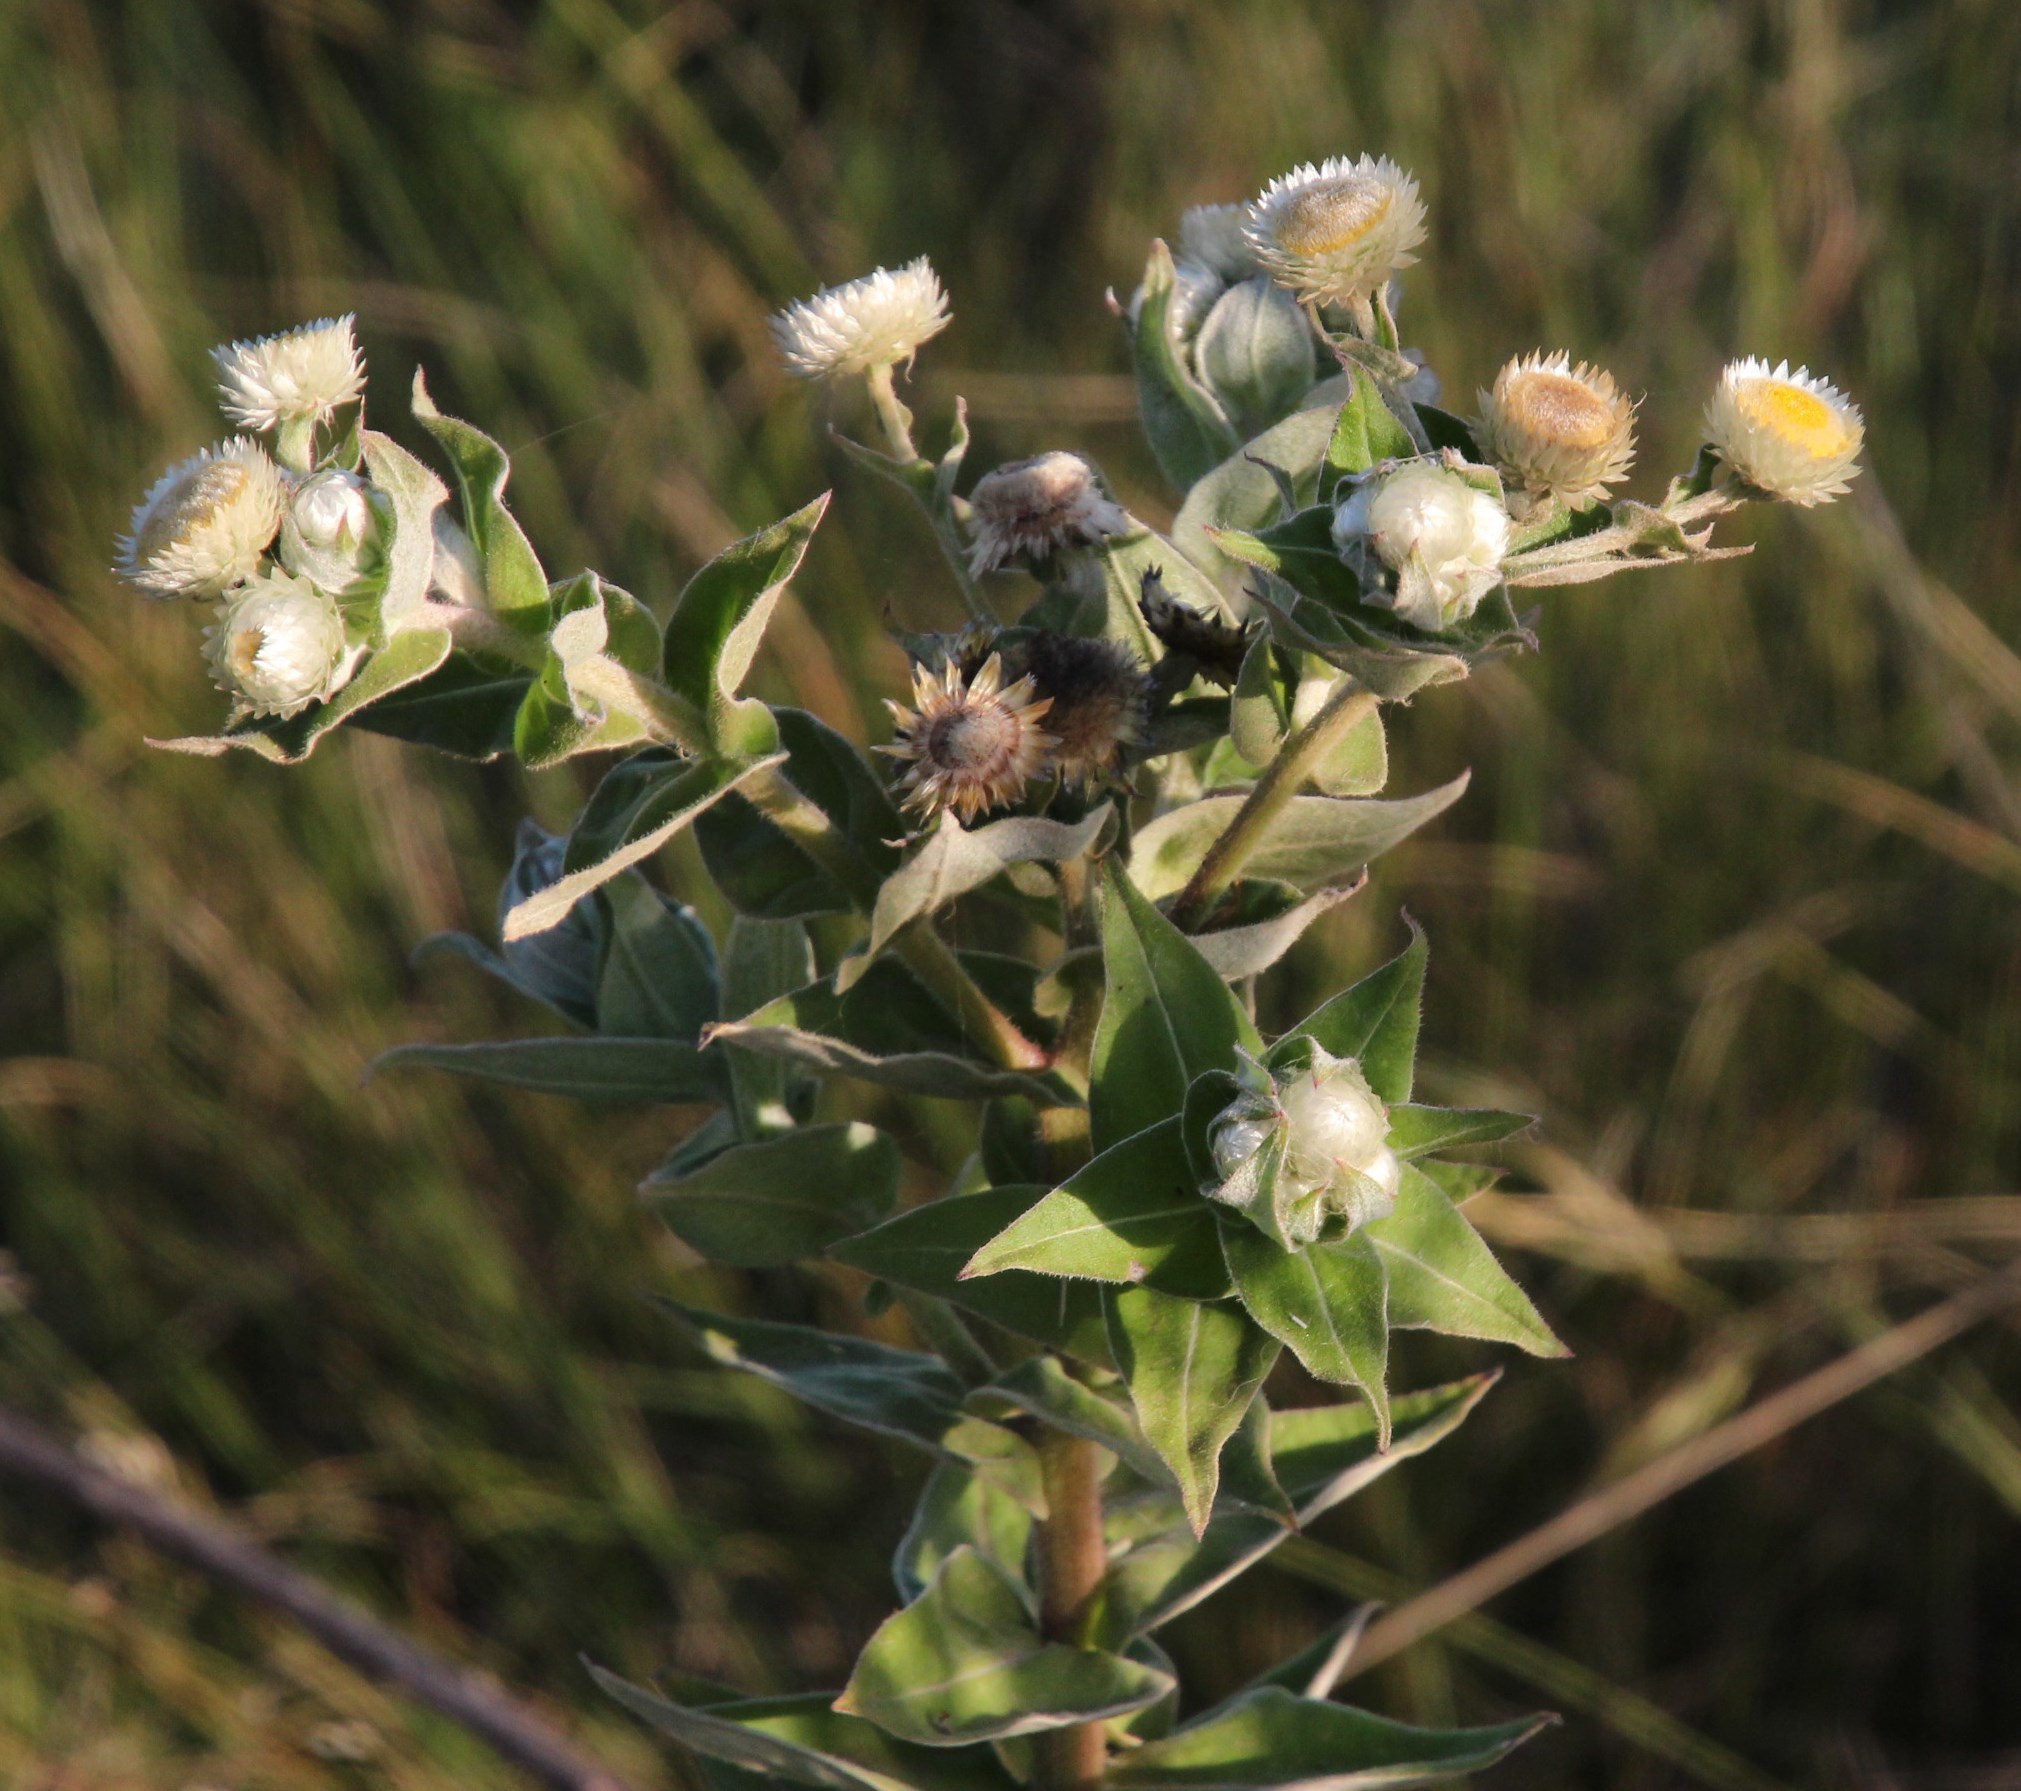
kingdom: Plantae
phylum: Tracheophyta
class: Magnoliopsida
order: Asterales
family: Asteraceae
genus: Helichrysum
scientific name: Helichrysum foetidum
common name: Stinking everlasting
